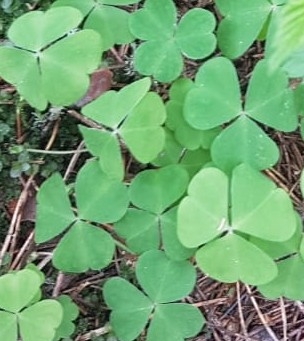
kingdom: Plantae
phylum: Tracheophyta
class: Magnoliopsida
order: Oxalidales
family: Oxalidaceae
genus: Oxalis
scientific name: Oxalis acetosella
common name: Wood-sorrel
